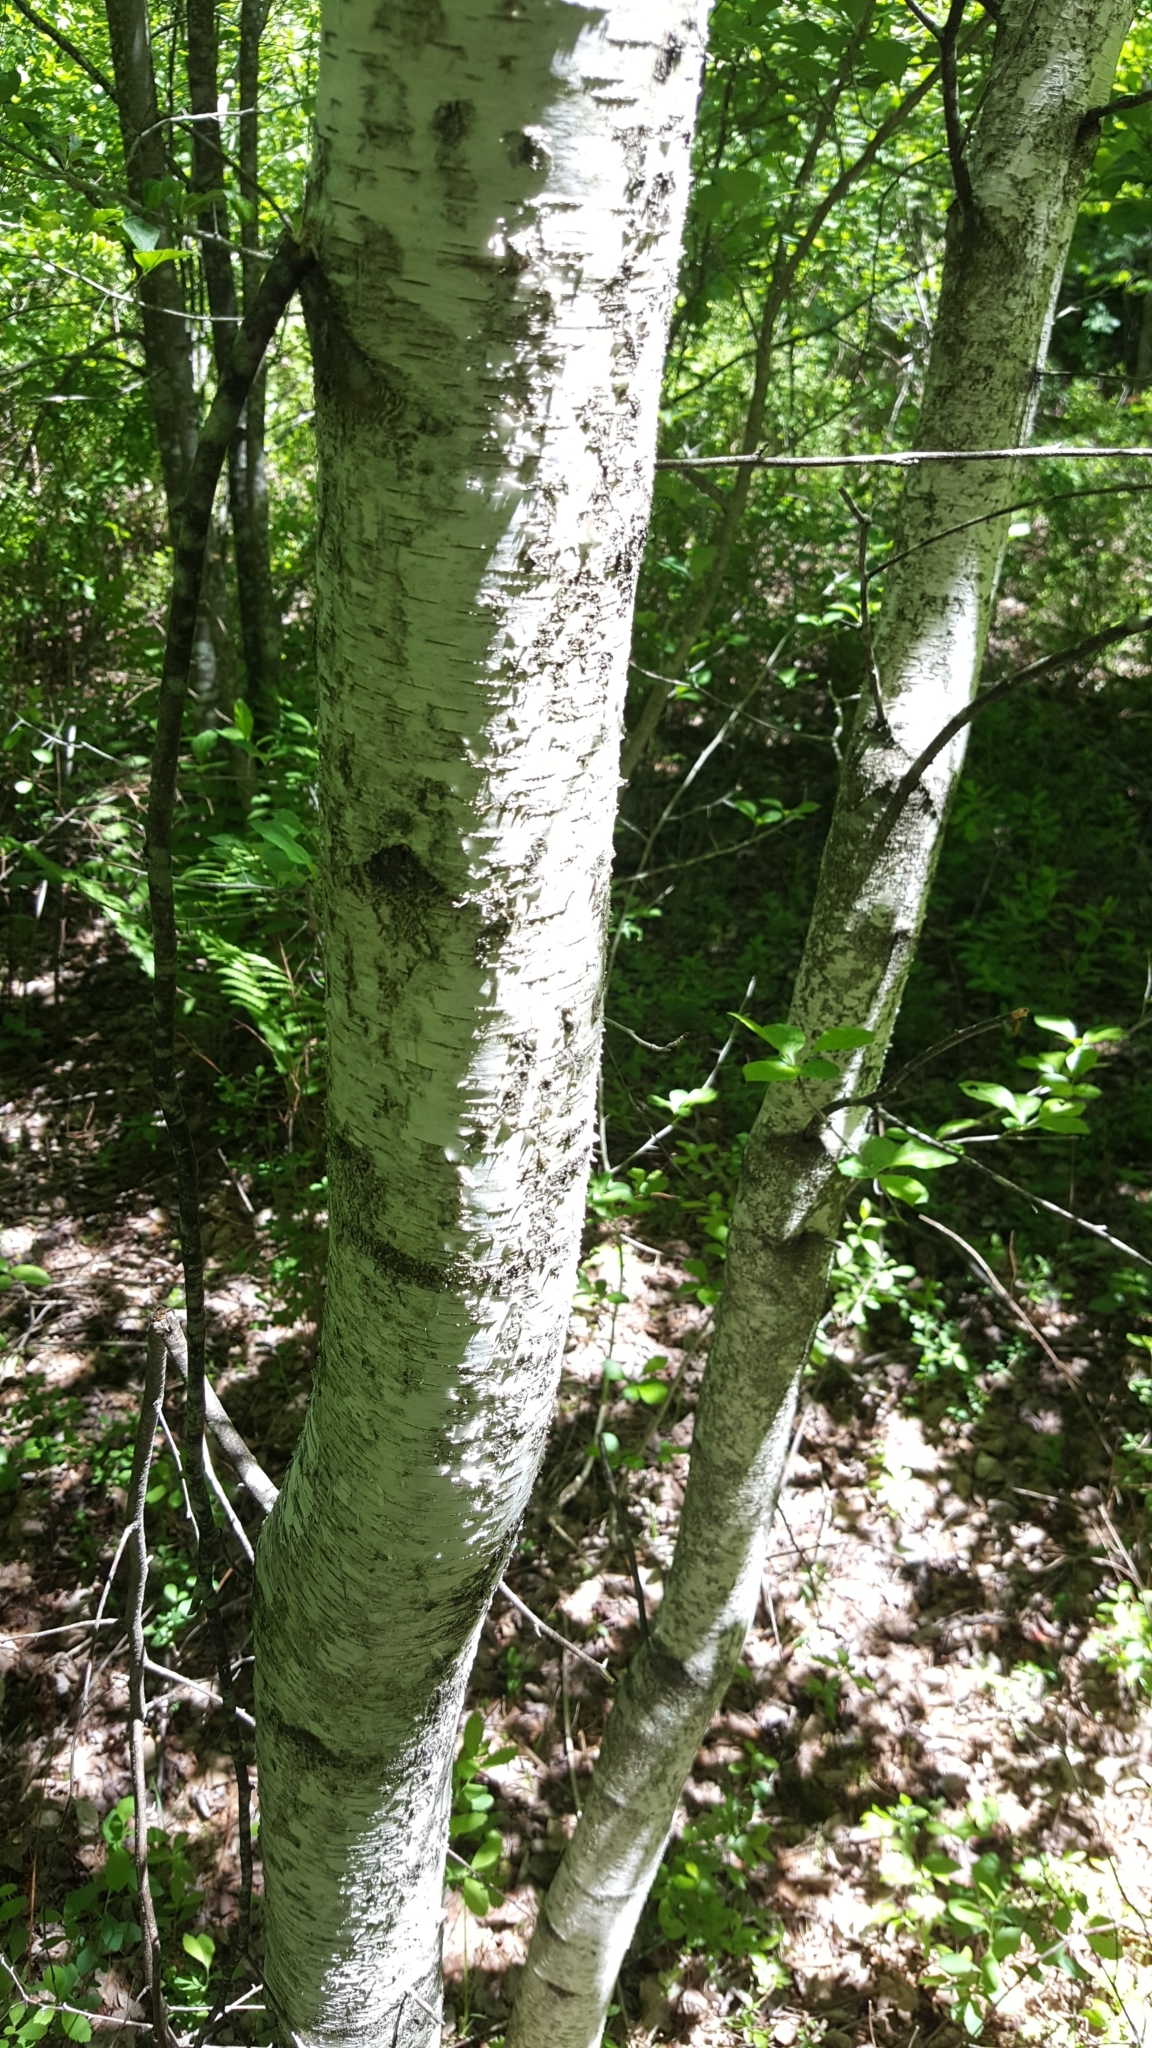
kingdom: Plantae
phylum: Tracheophyta
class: Magnoliopsida
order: Fagales
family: Betulaceae
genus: Betula
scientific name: Betula populifolia
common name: Fire birch
